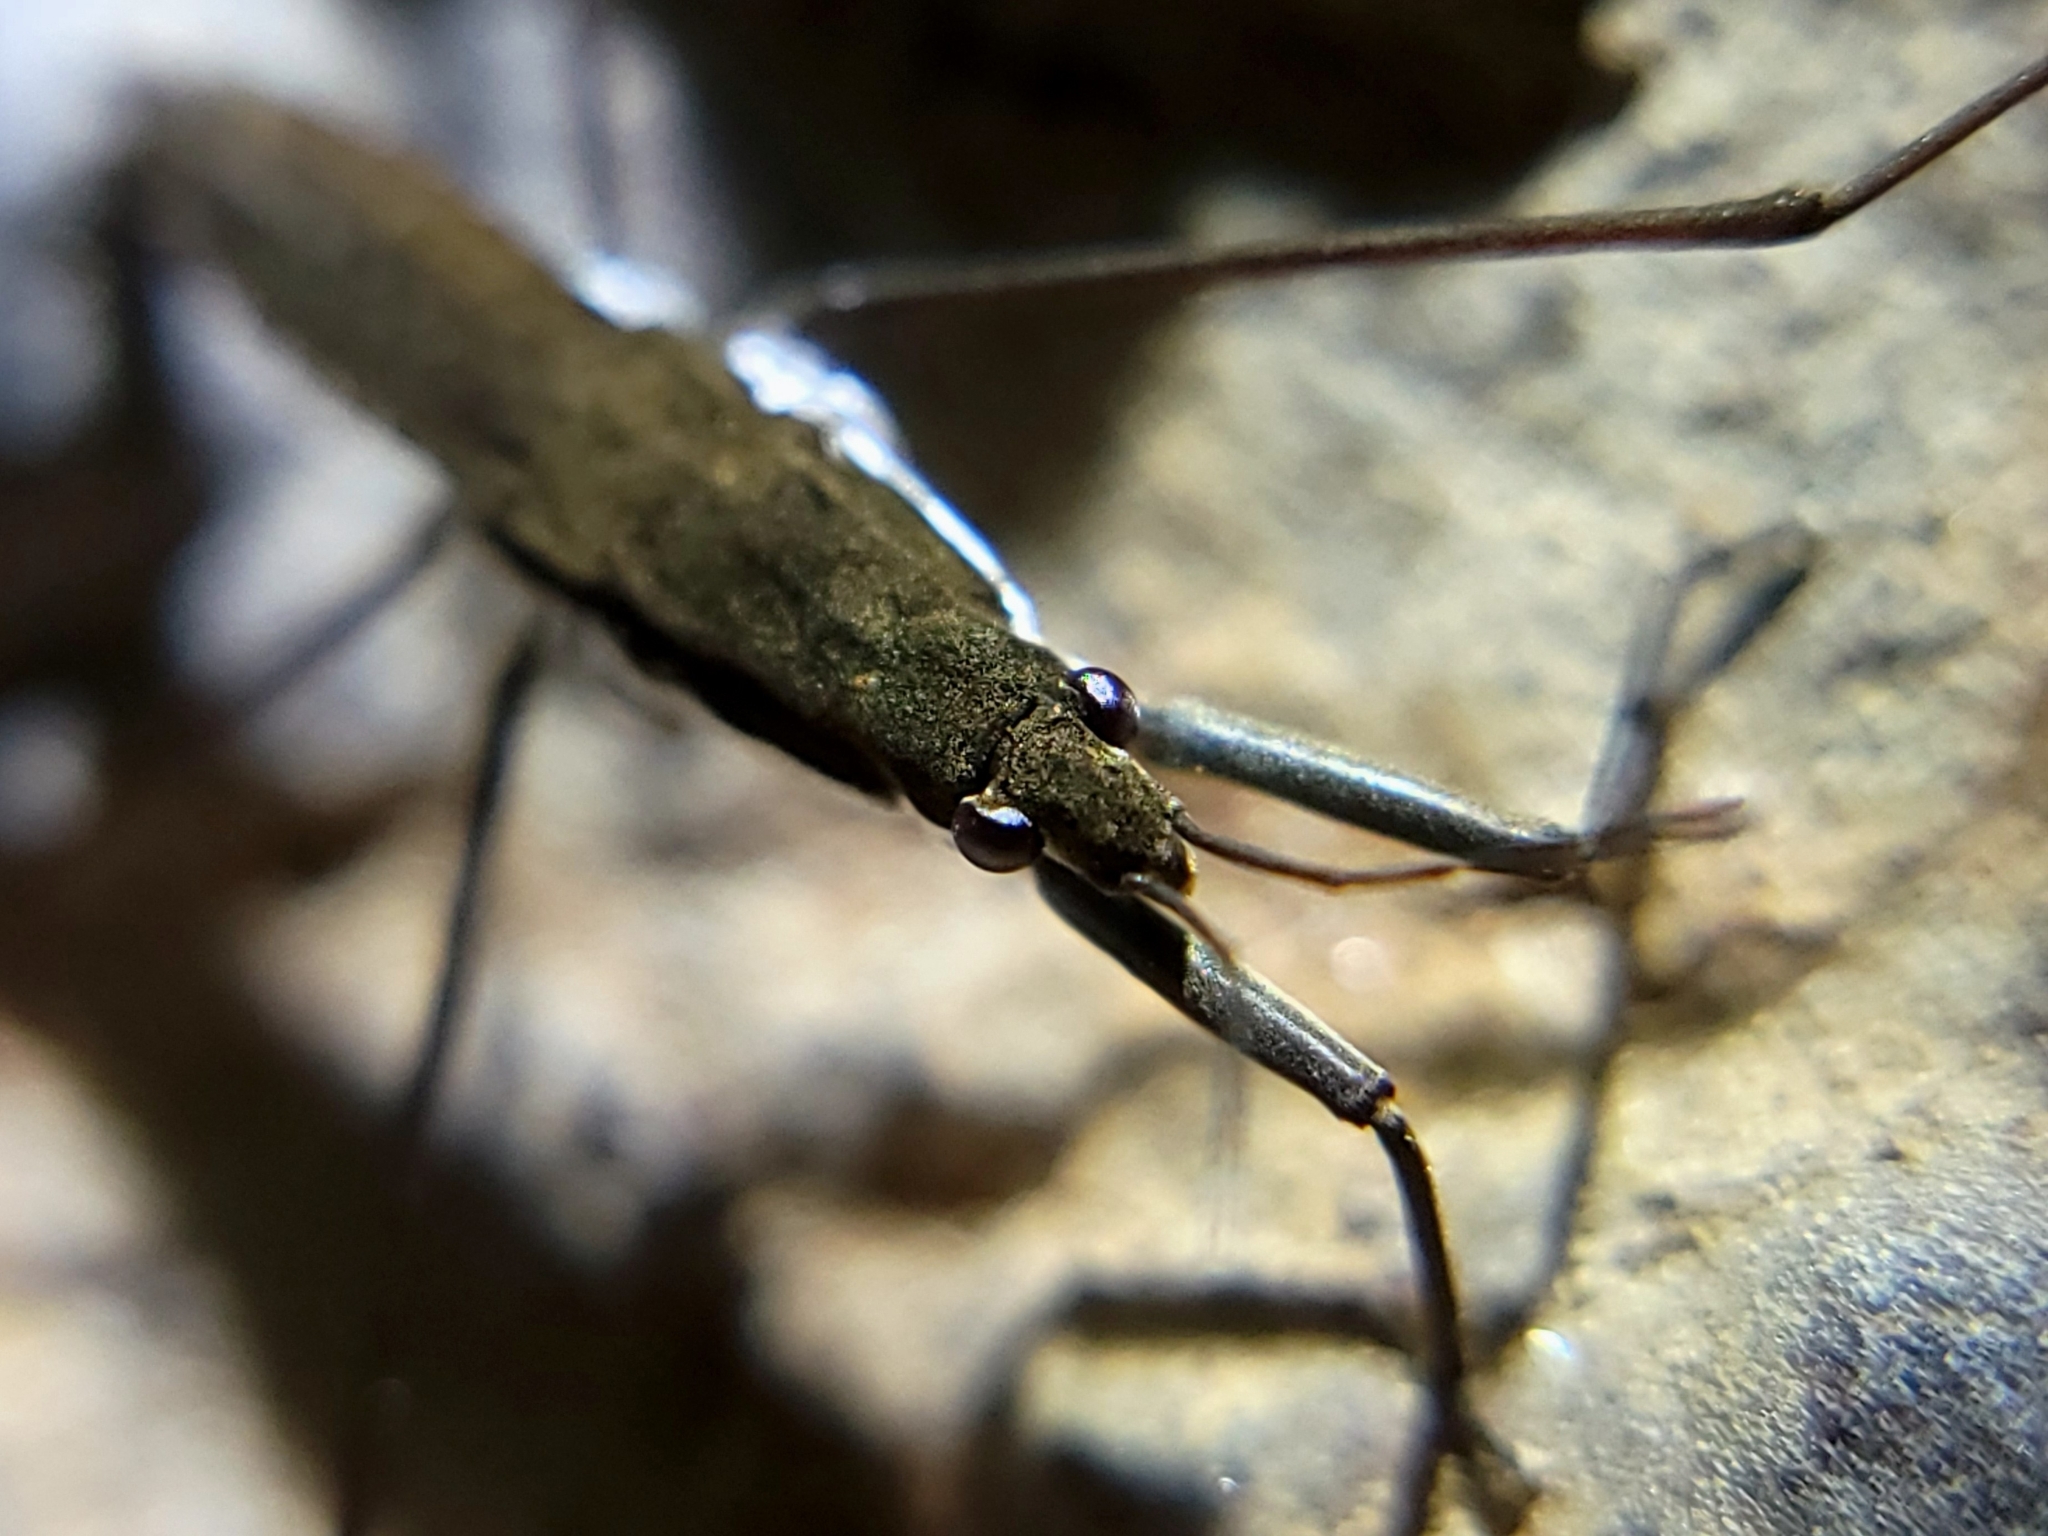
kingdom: Animalia
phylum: Arthropoda
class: Insecta
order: Hemiptera
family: Gerridae
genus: Aquarius
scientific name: Aquarius remigis
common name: Common water strider
